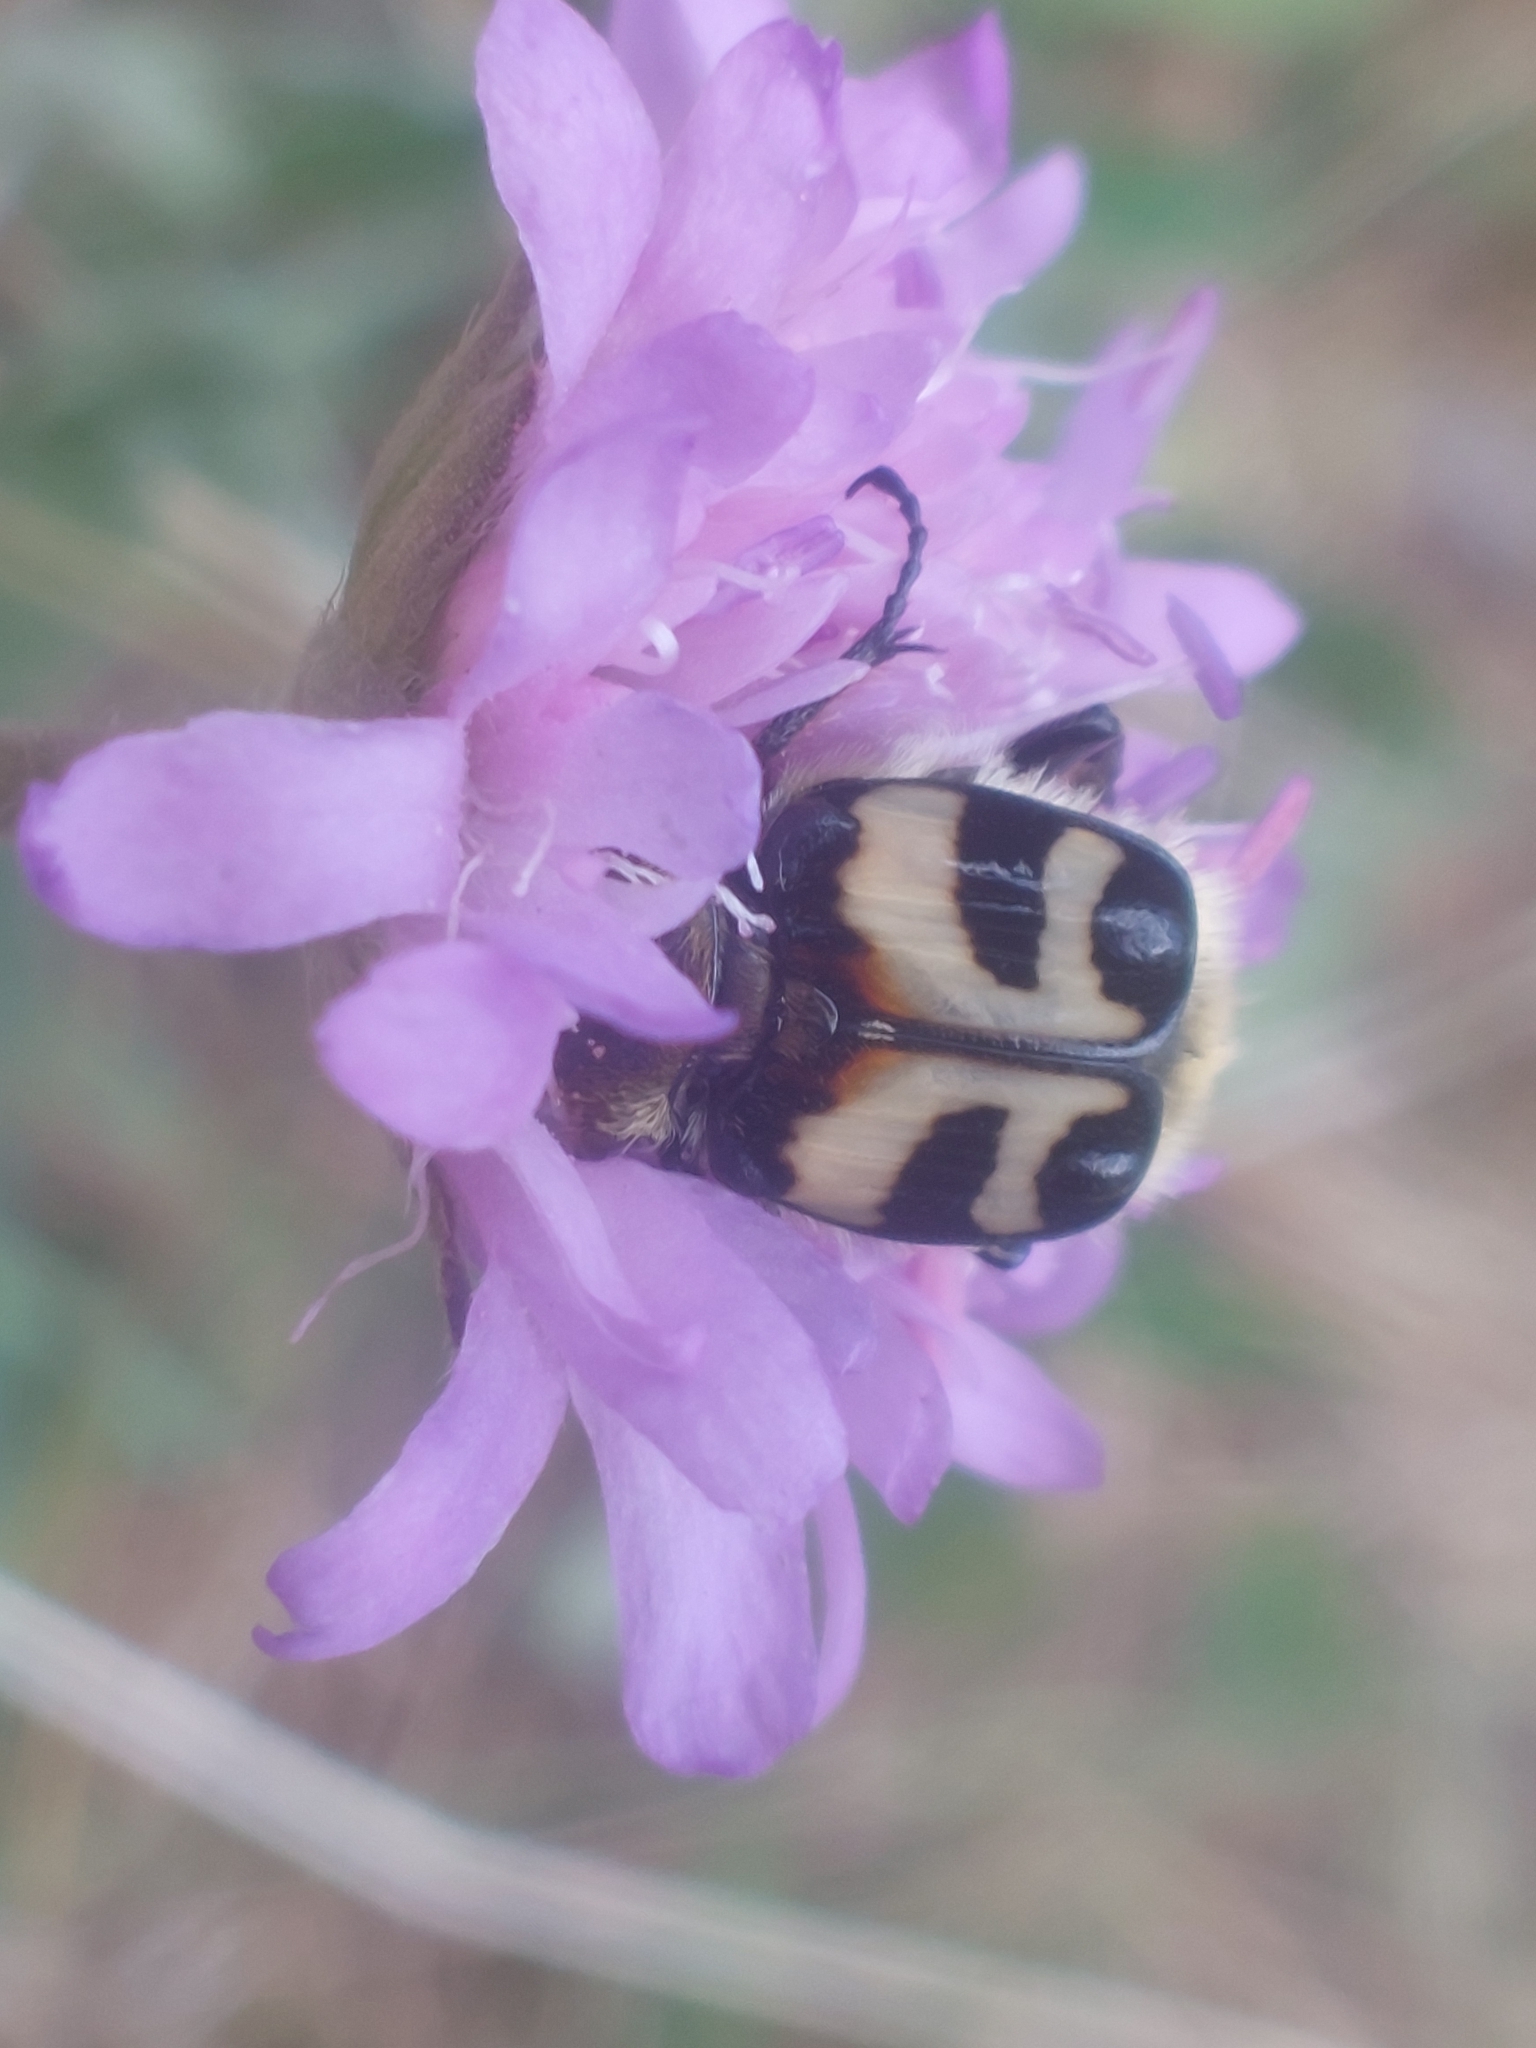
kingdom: Animalia
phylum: Arthropoda
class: Insecta
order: Coleoptera
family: Scarabaeidae
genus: Trichius
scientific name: Trichius fasciatus
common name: Bee beetle
